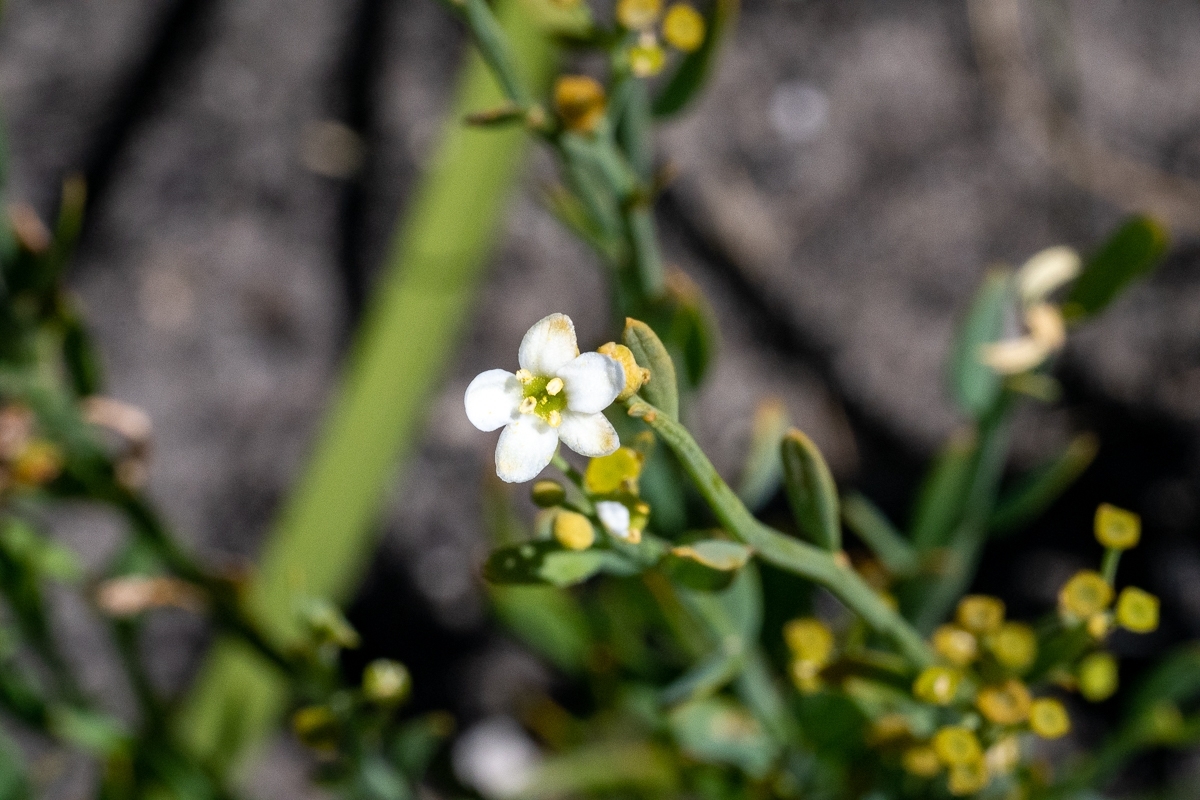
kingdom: Plantae
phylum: Tracheophyta
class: Magnoliopsida
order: Solanales
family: Montiniaceae
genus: Montinia
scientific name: Montinia caryophyllacea
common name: Wild clove-bush
